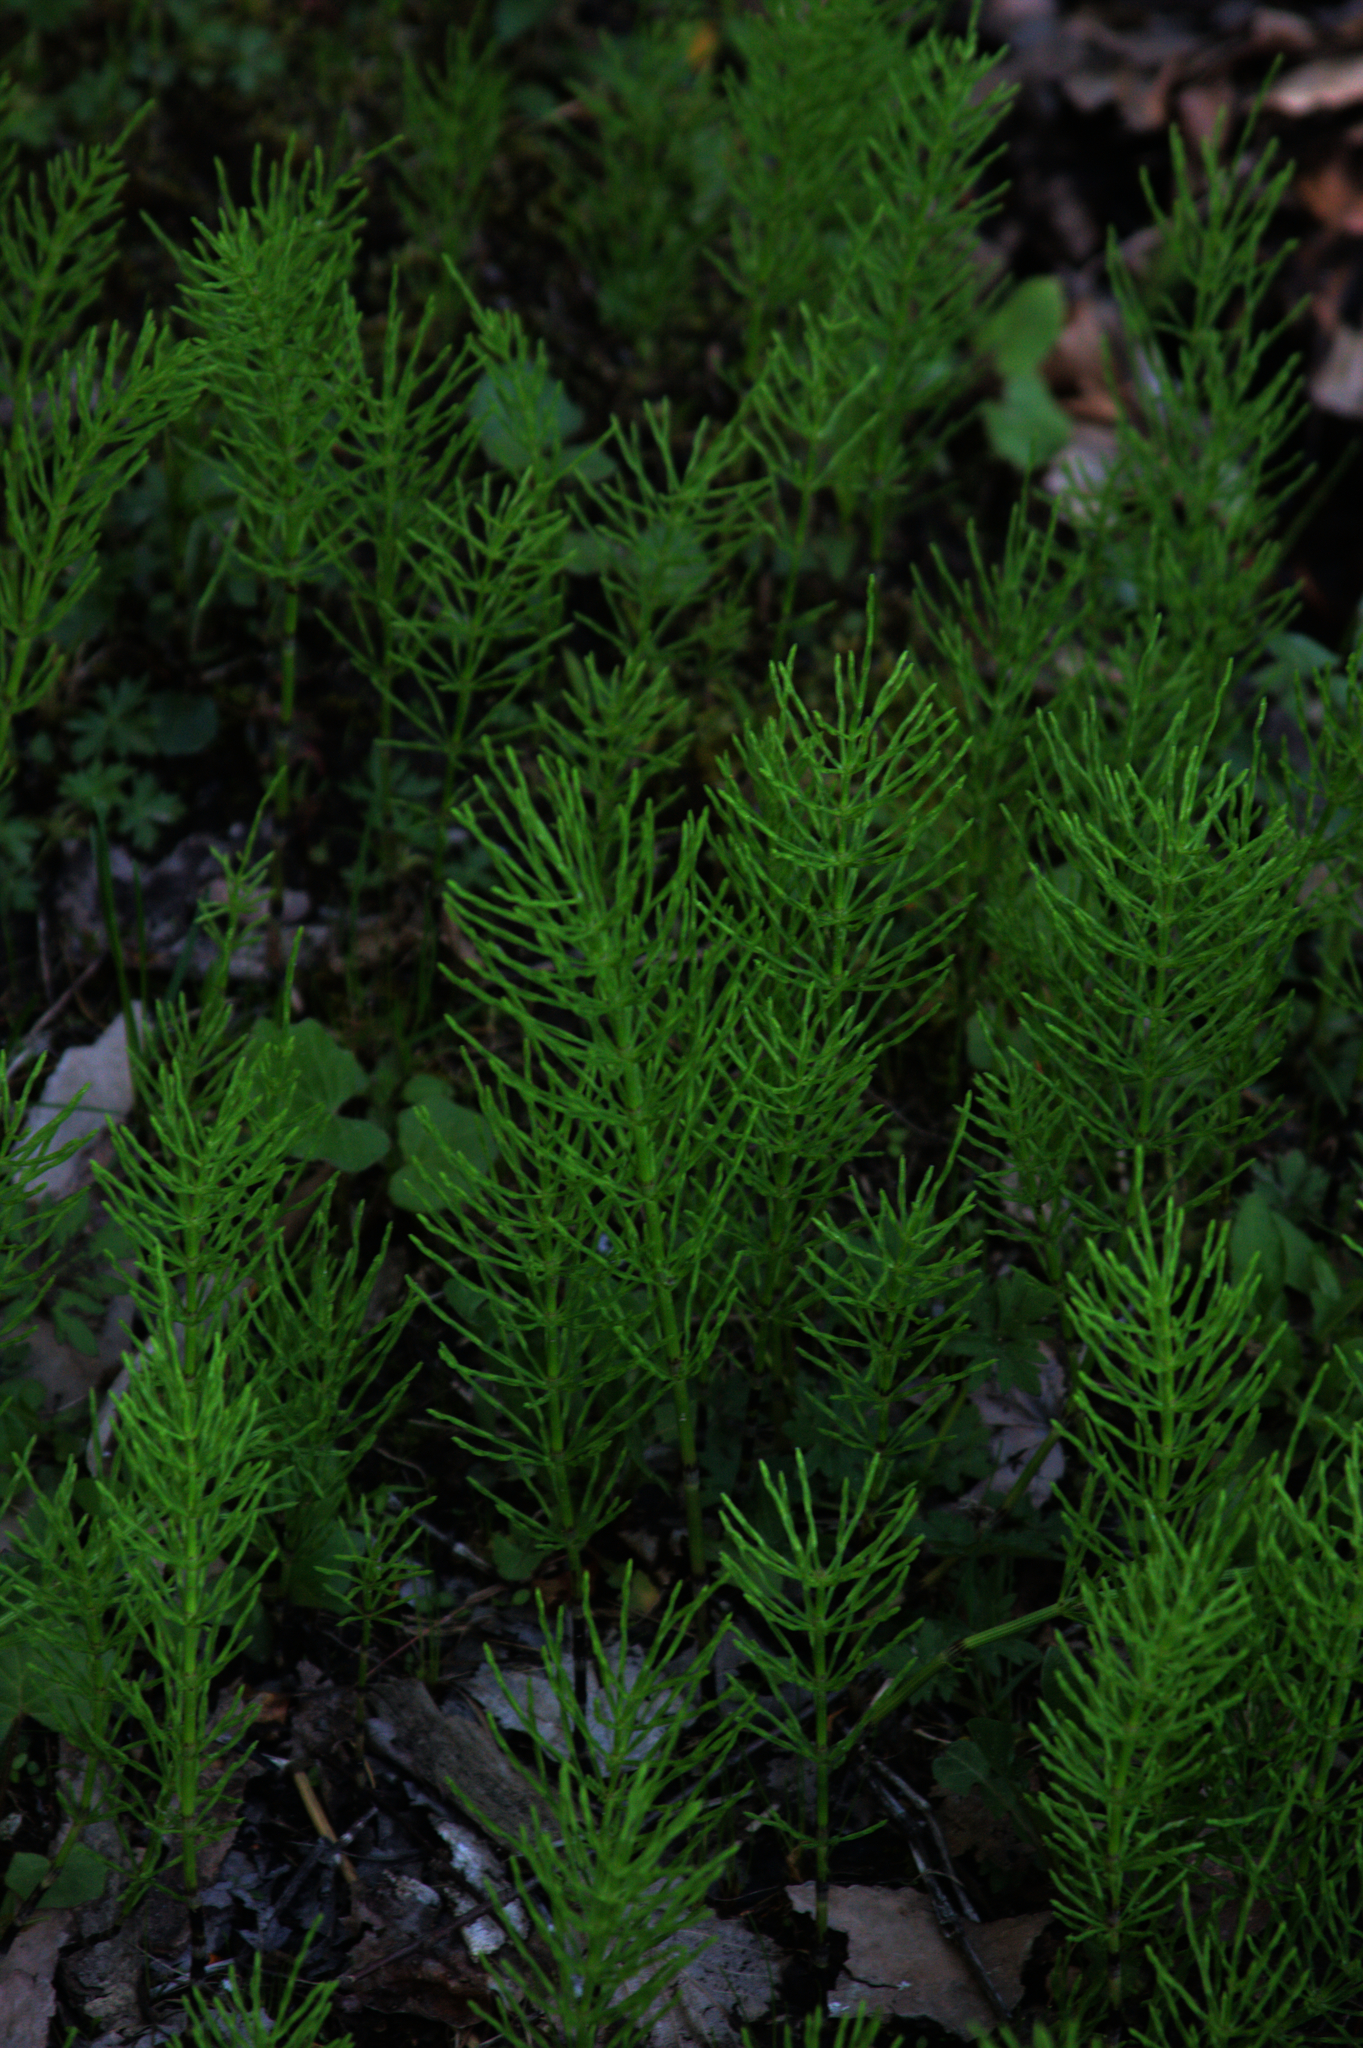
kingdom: Plantae
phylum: Tracheophyta
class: Polypodiopsida
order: Equisetales
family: Equisetaceae
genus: Equisetum
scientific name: Equisetum arvense
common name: Field horsetail
